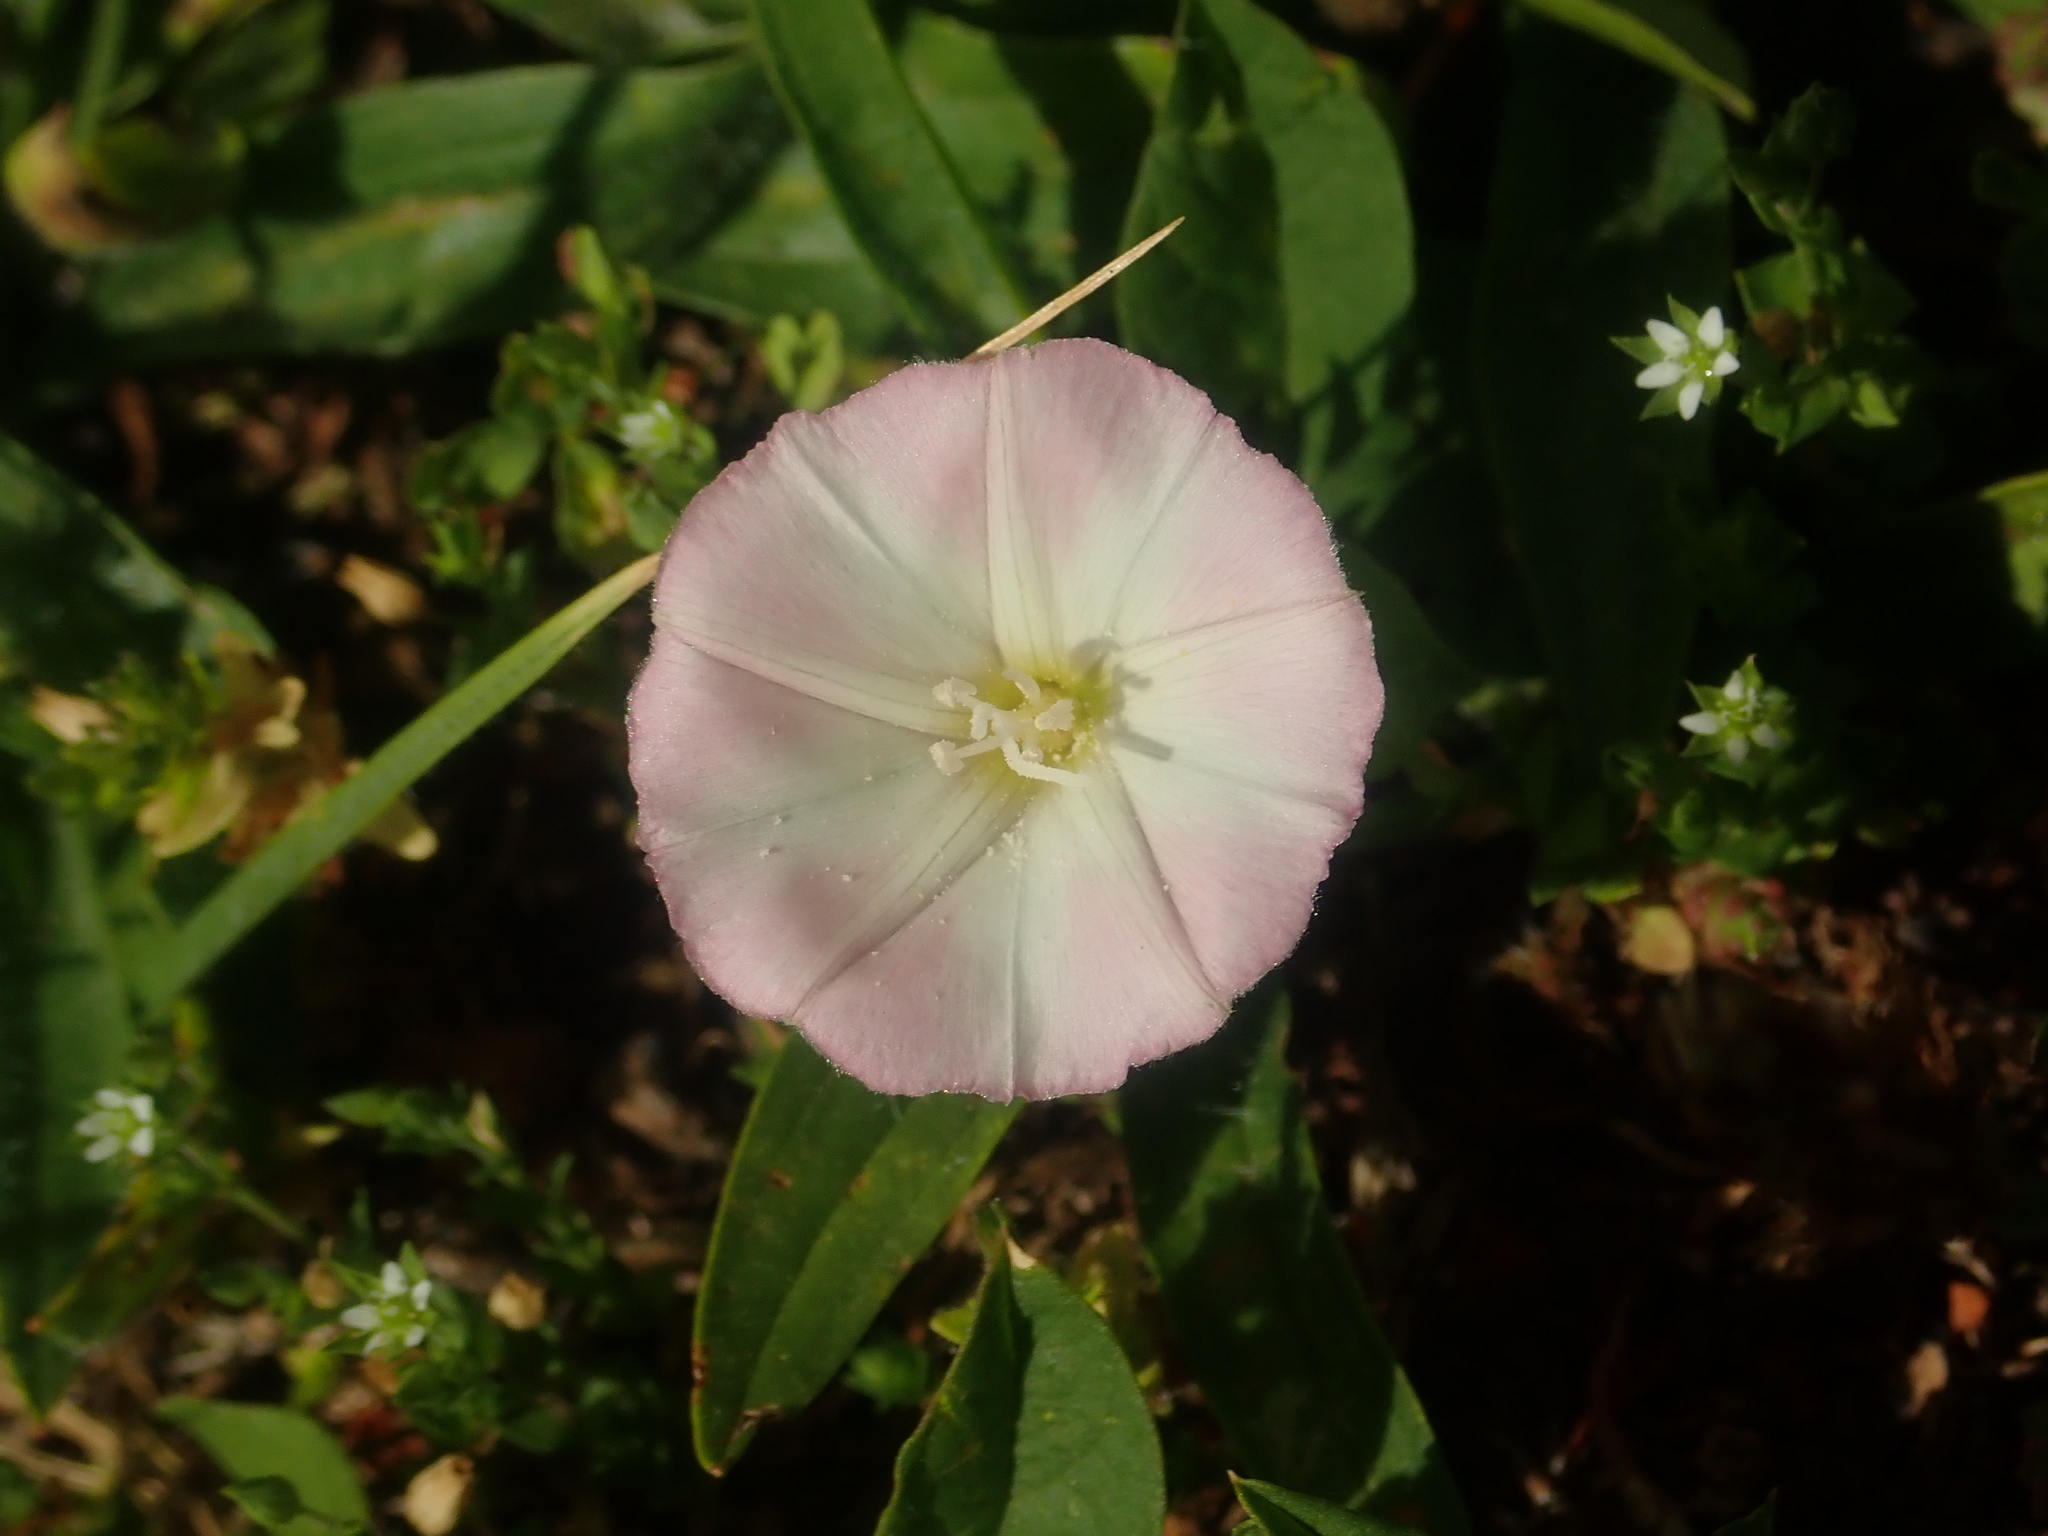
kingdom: Plantae
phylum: Tracheophyta
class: Magnoliopsida
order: Solanales
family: Convolvulaceae
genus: Convolvulus
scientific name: Convolvulus arvensis
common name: Field bindweed
